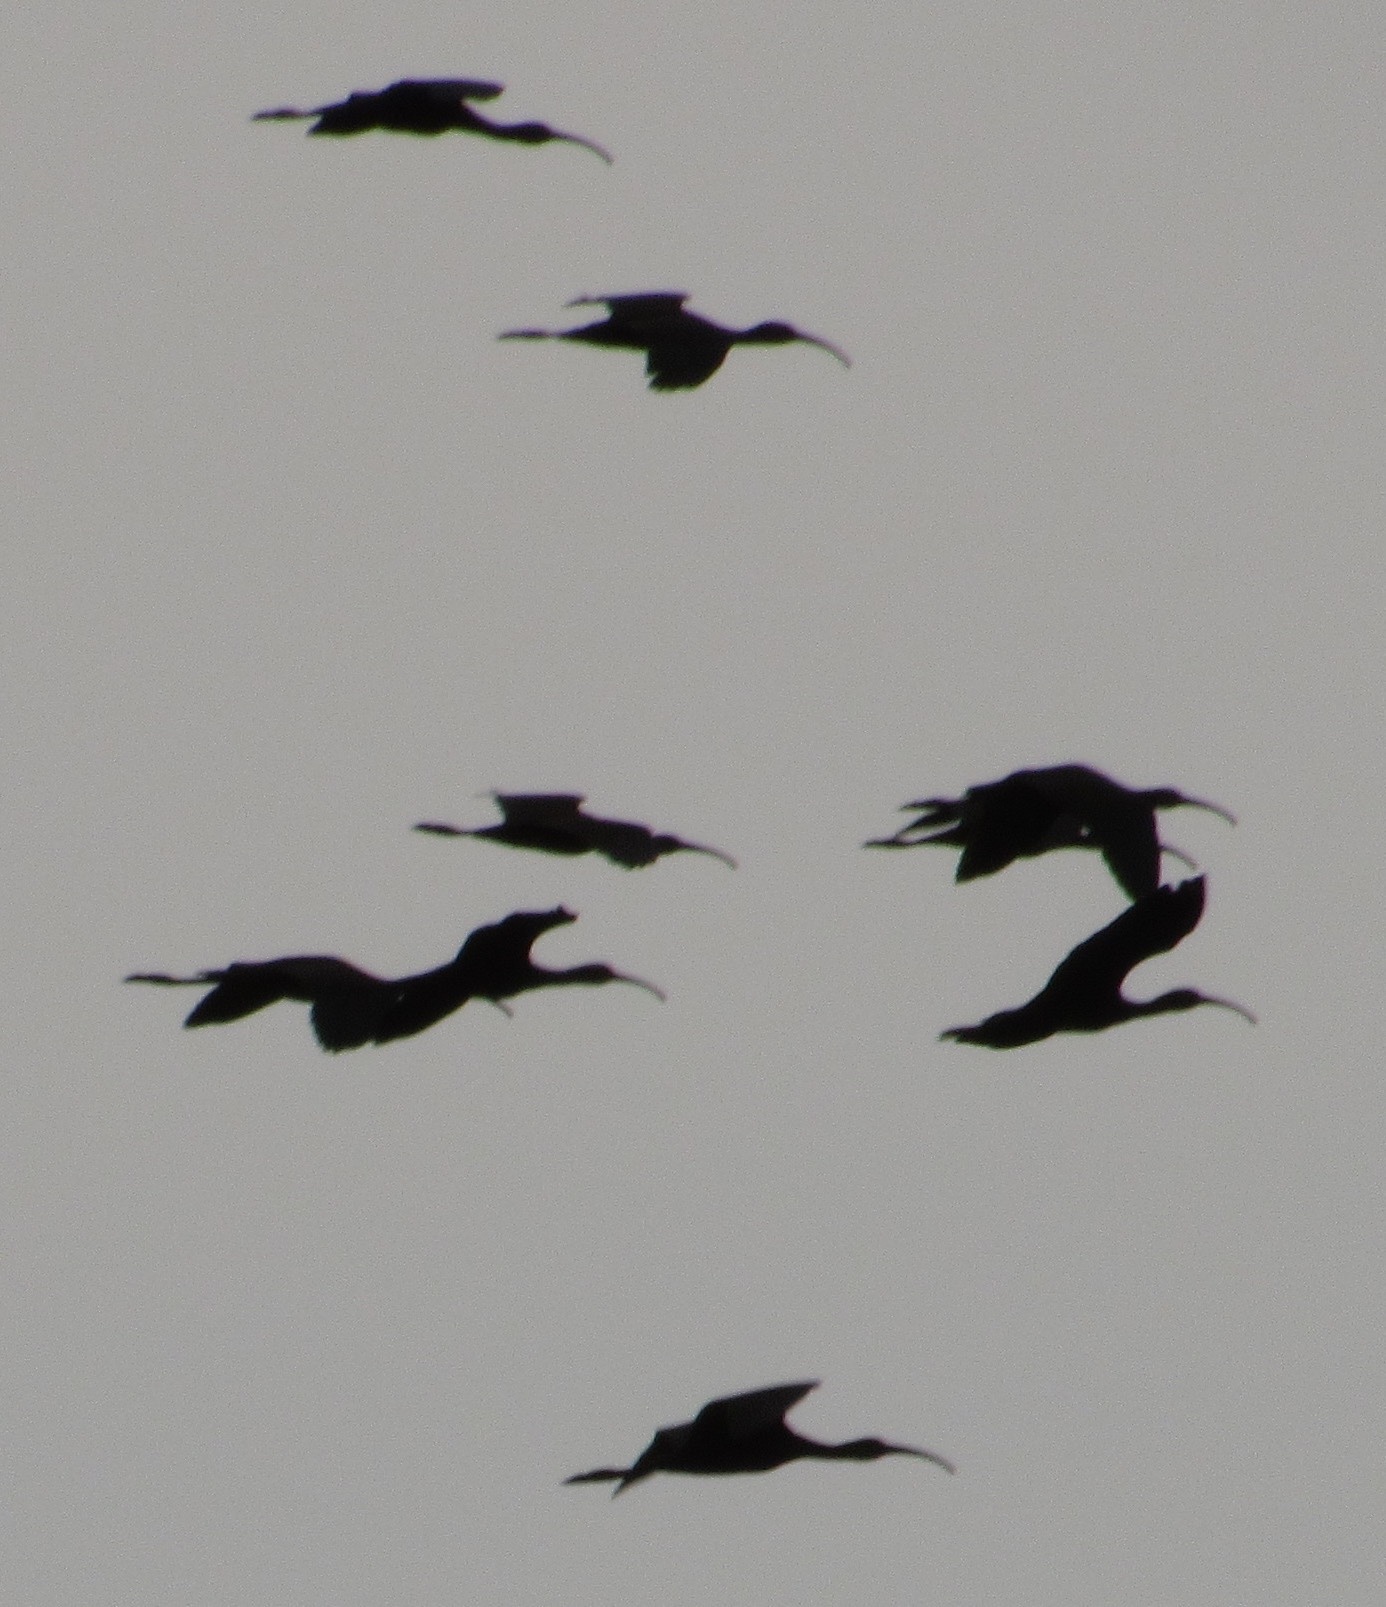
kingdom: Animalia
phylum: Chordata
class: Aves
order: Pelecaniformes
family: Threskiornithidae
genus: Plegadis
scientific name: Plegadis chihi
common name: White-faced ibis
